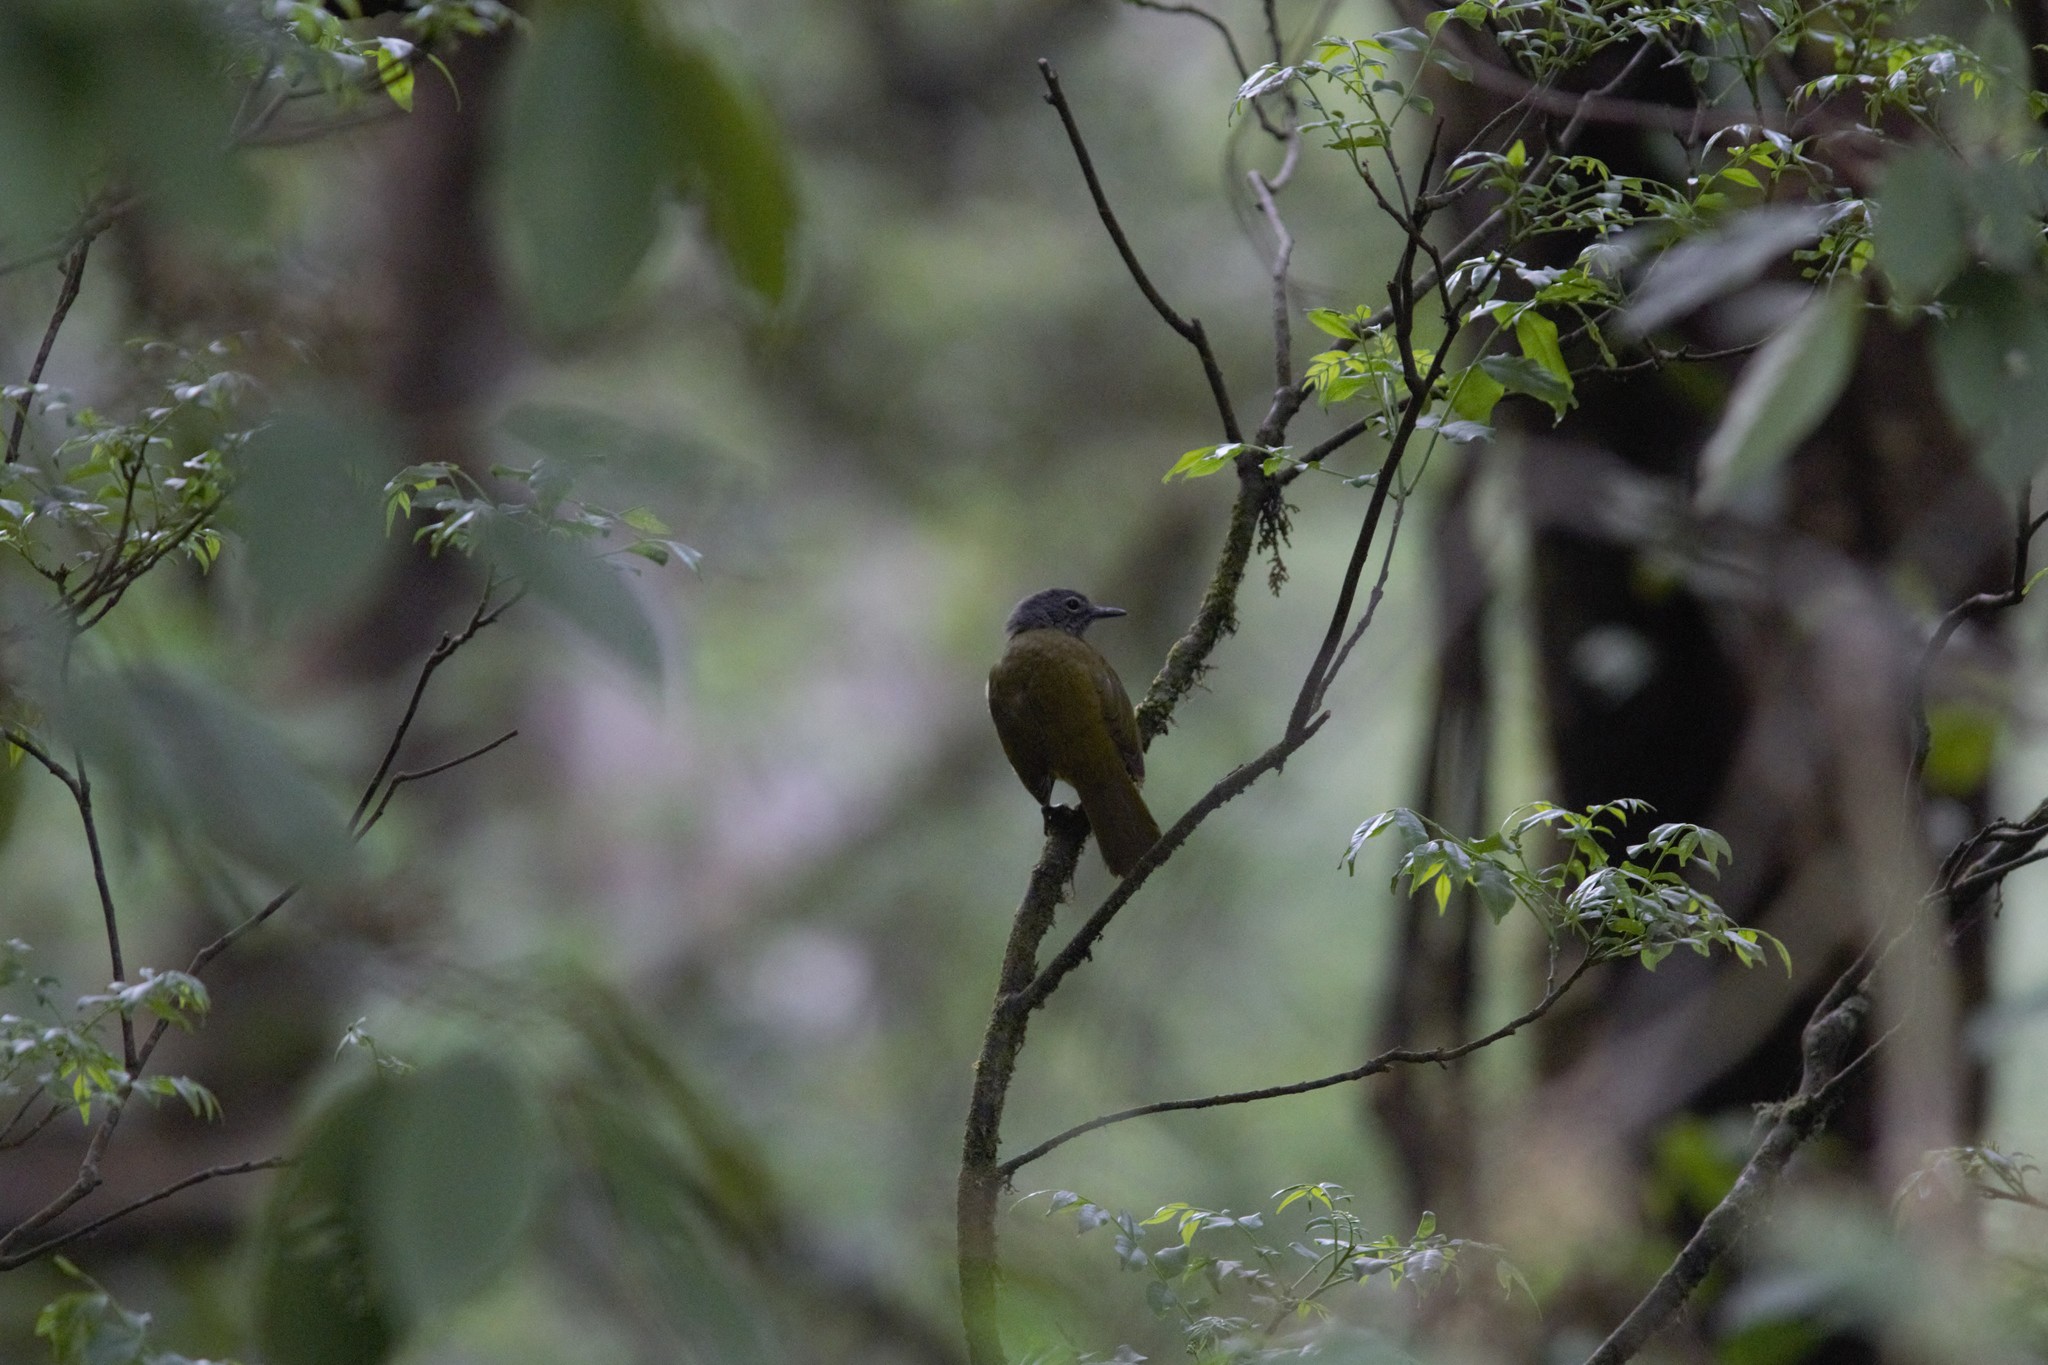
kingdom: Animalia
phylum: Chordata
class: Aves
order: Passeriformes
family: Pycnonotidae
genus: Arizelocichla
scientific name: Arizelocichla tephrolaema
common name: Western greenbul
